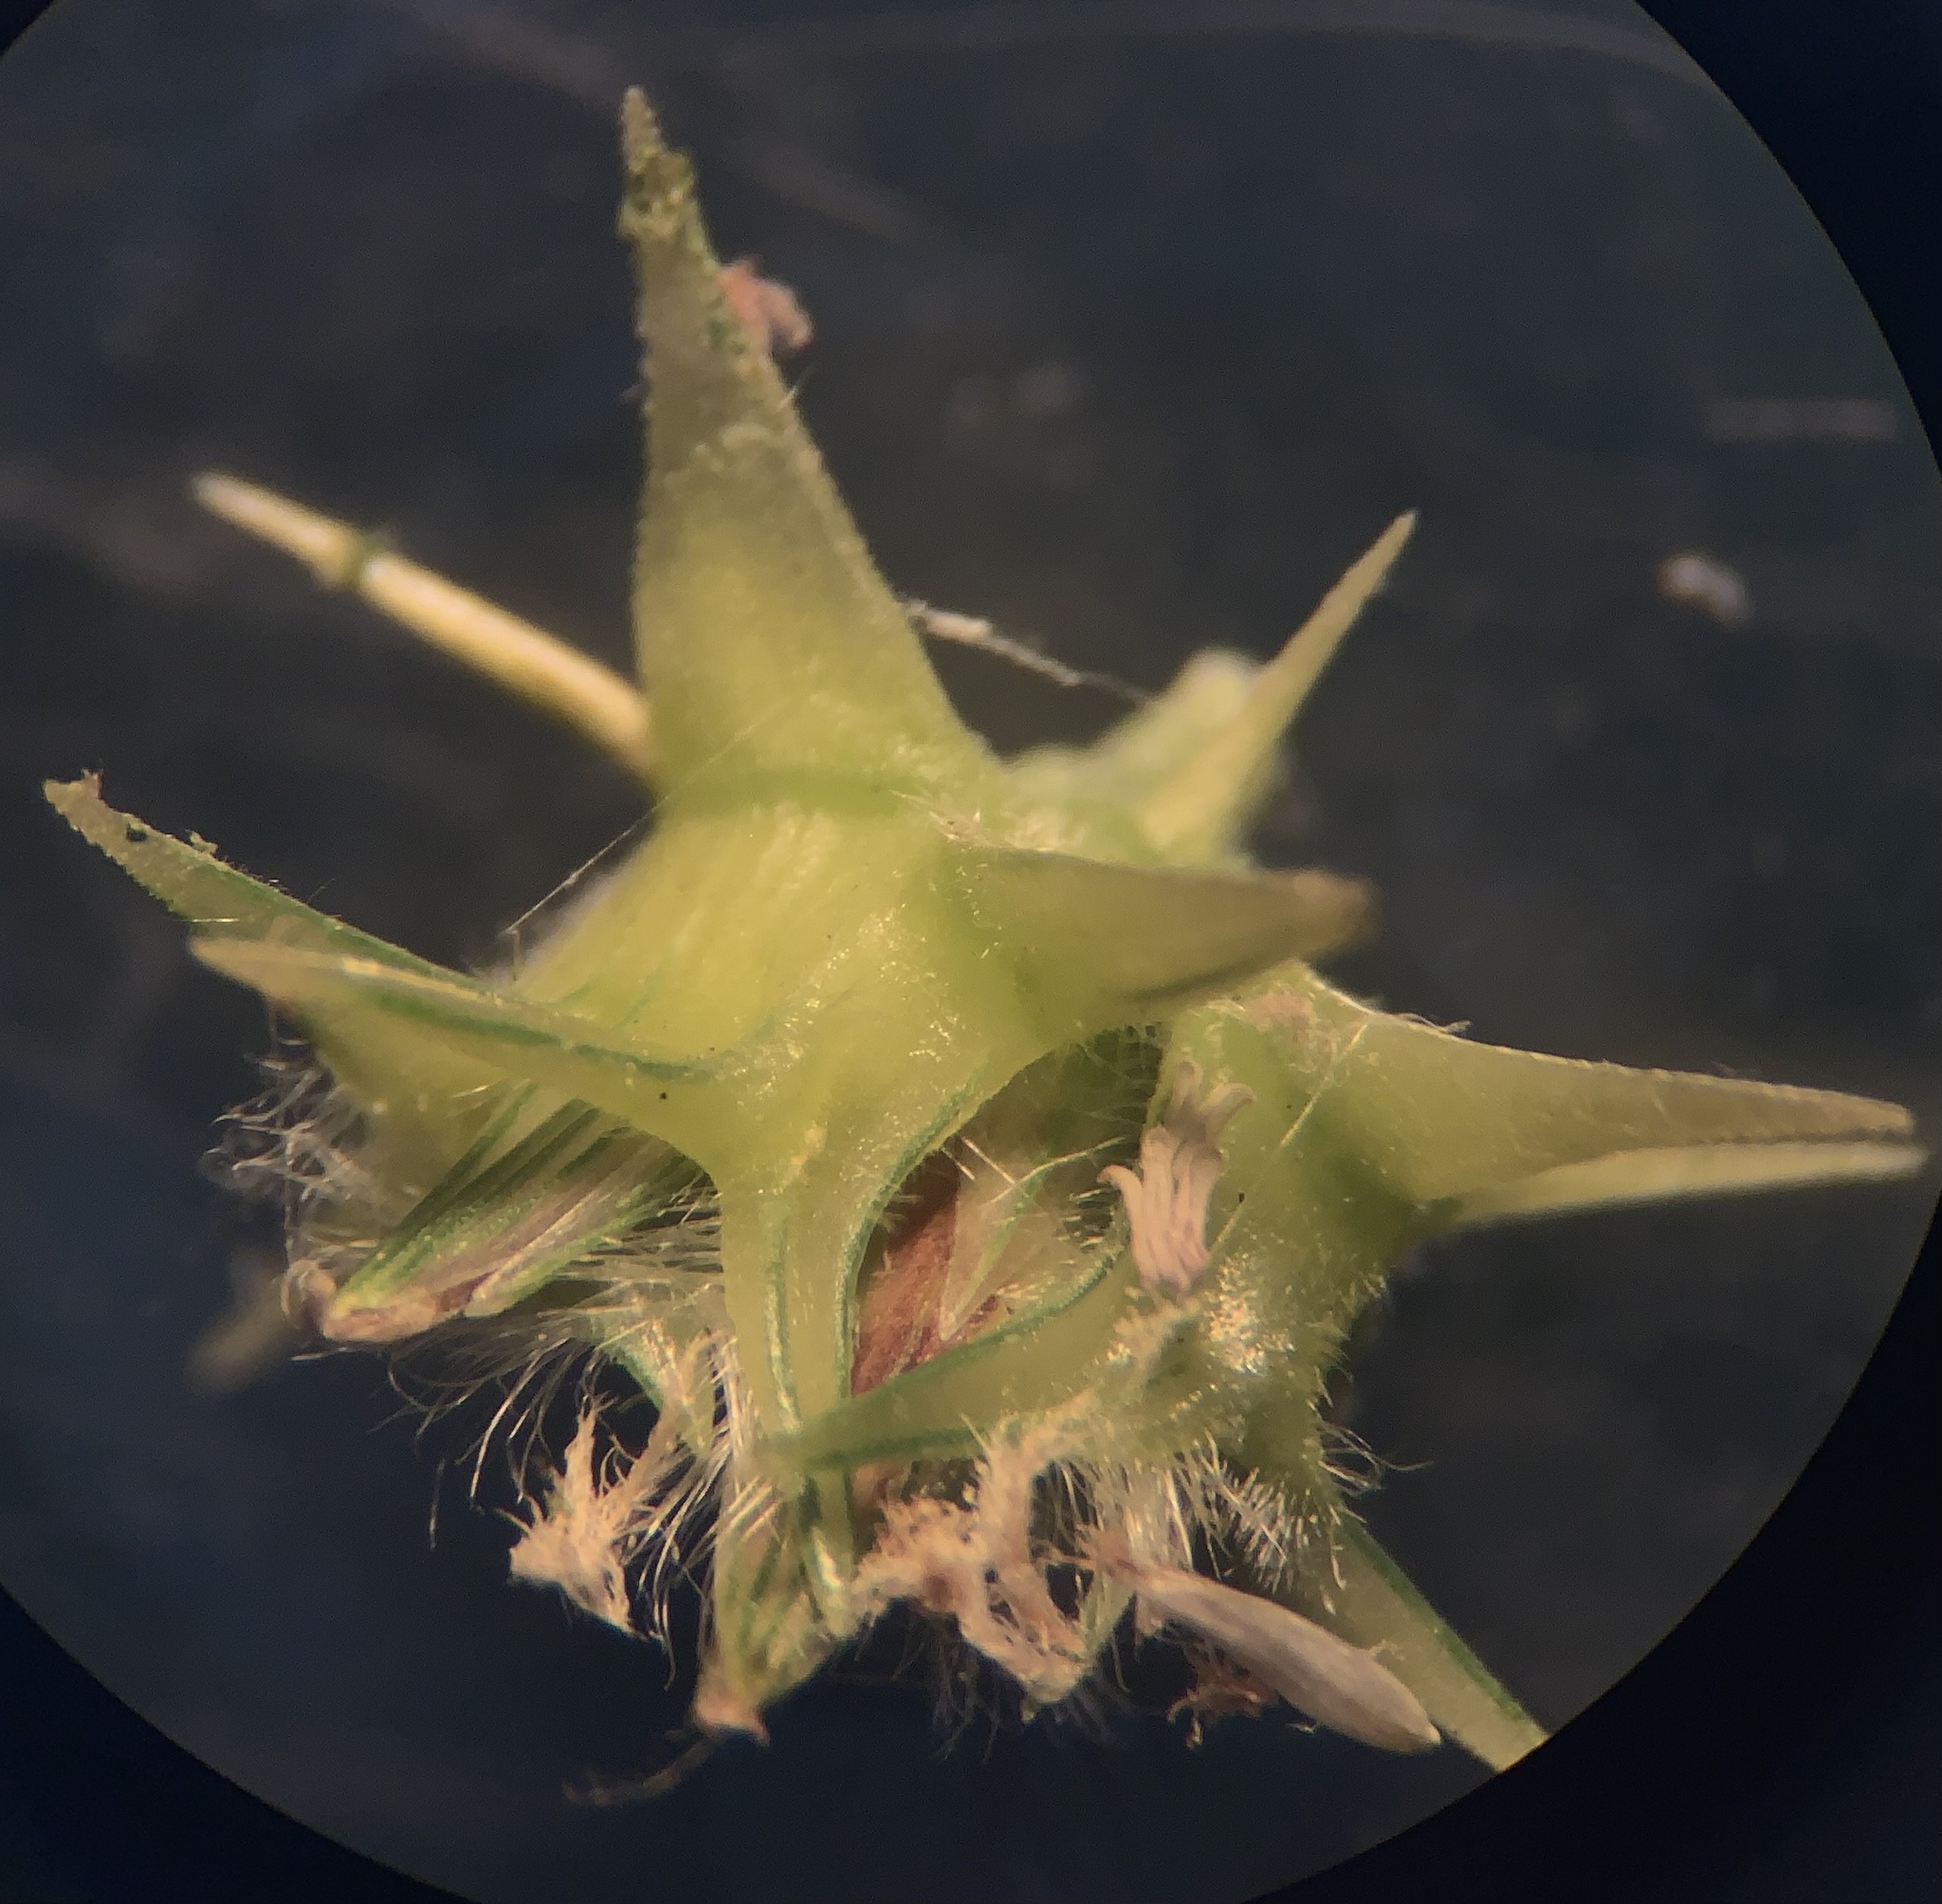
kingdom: Plantae
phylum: Tracheophyta
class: Liliopsida
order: Poales
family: Poaceae
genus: Cenchrus
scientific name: Cenchrus spinifex
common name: Coast sandbur
